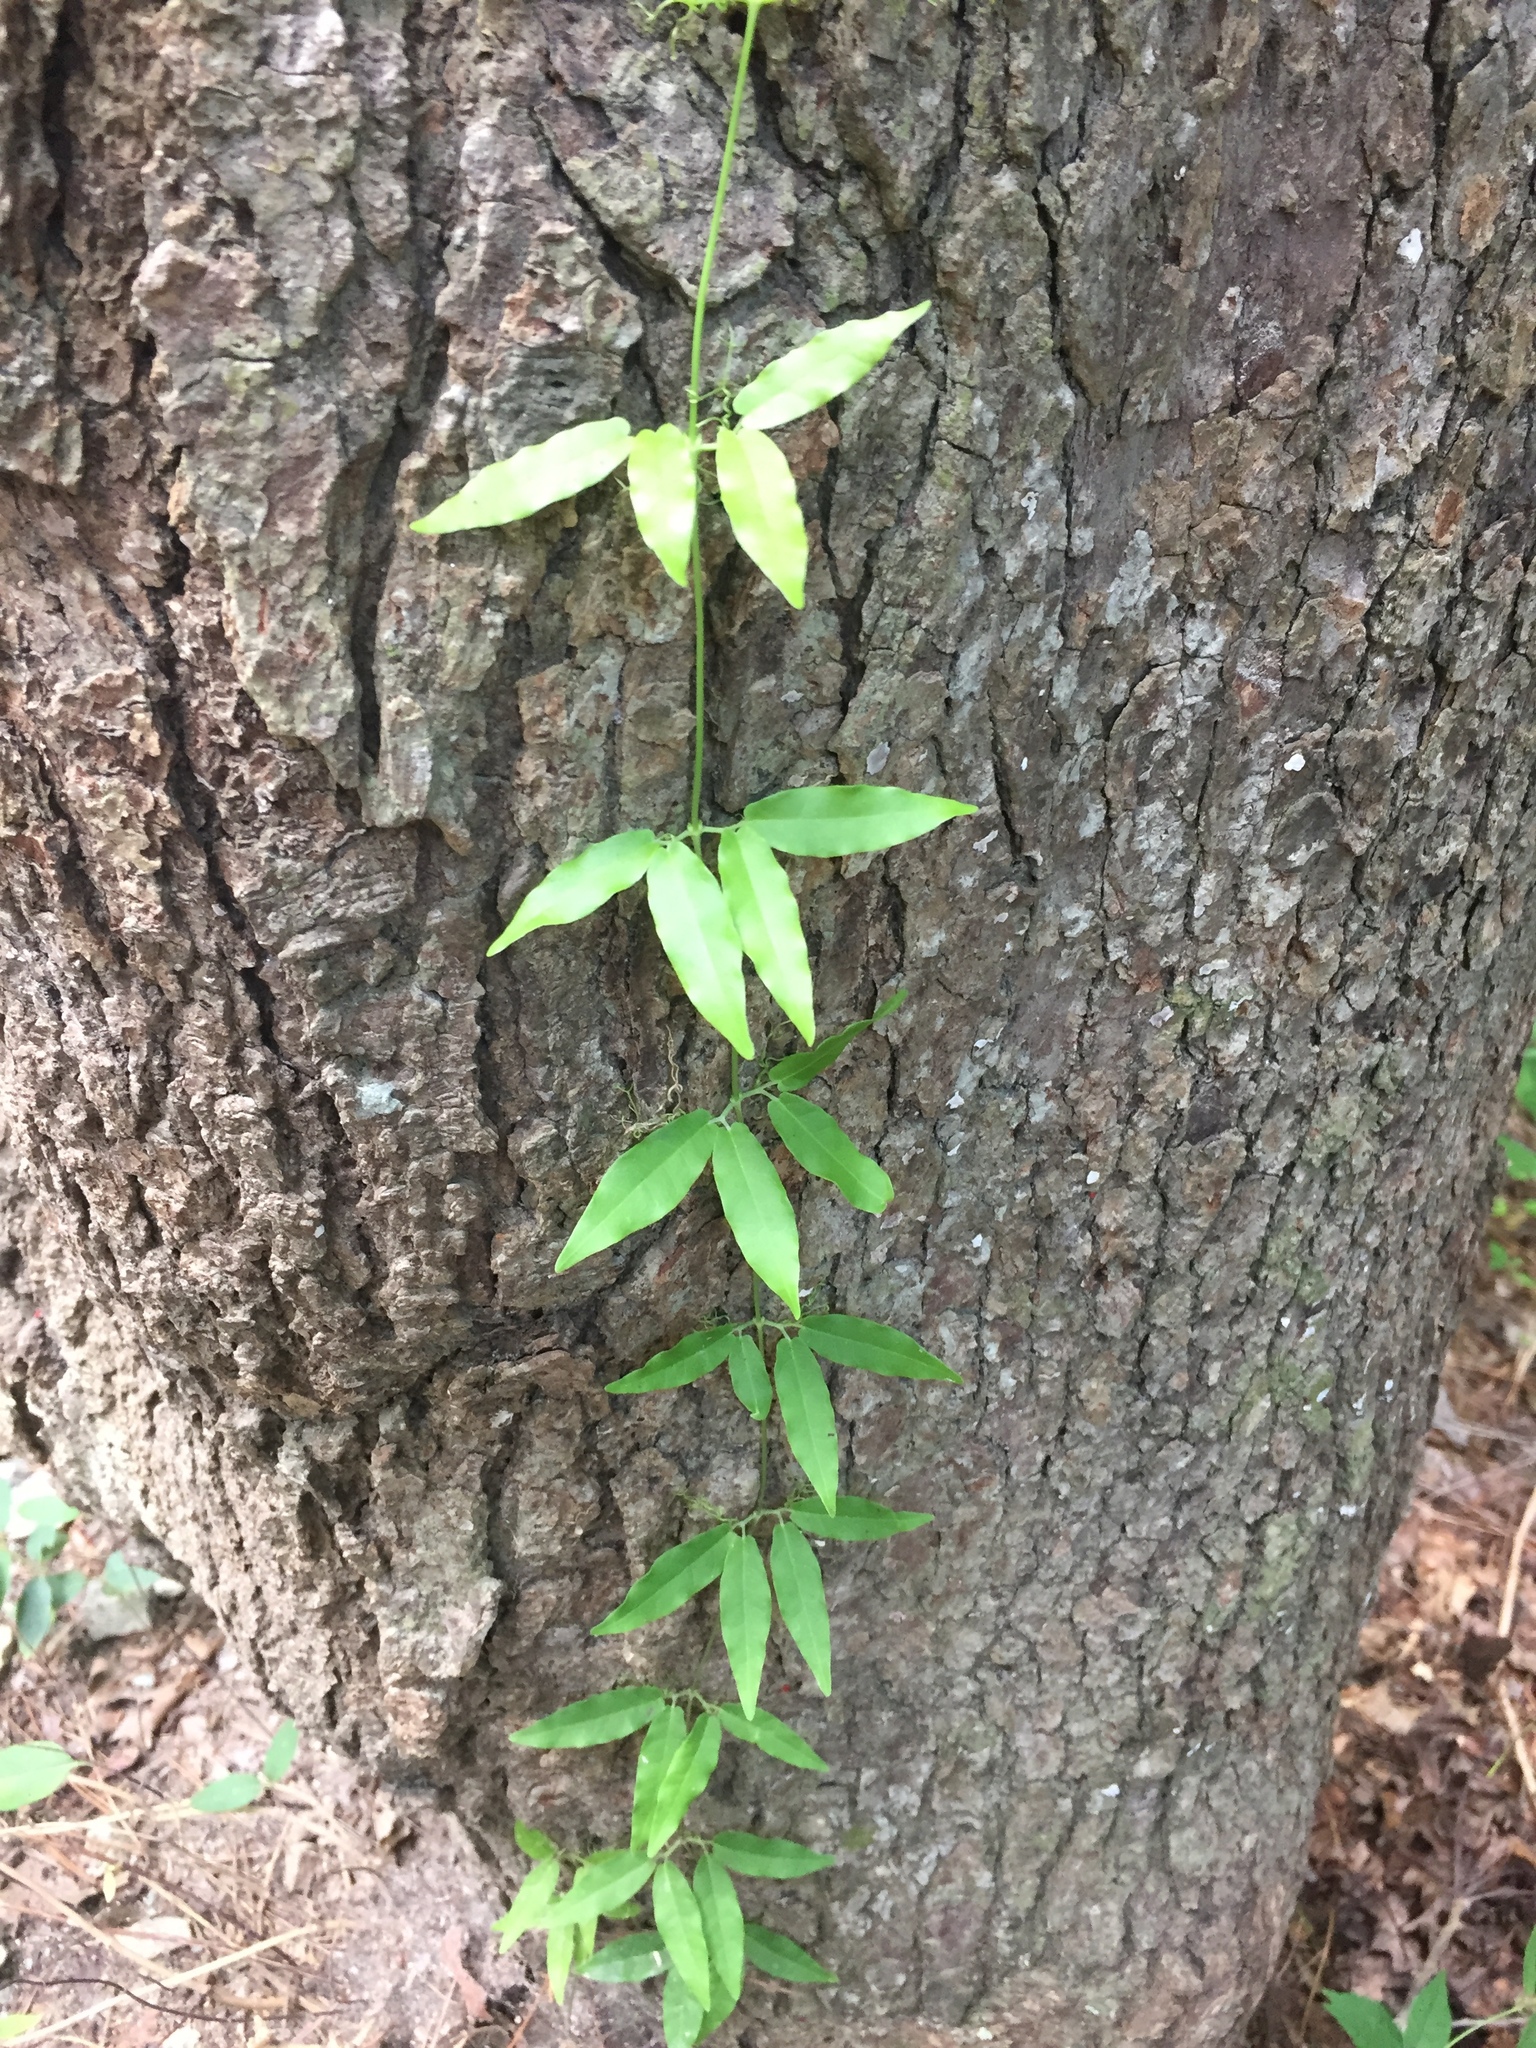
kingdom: Plantae
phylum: Tracheophyta
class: Magnoliopsida
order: Lamiales
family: Bignoniaceae
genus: Bignonia
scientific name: Bignonia capreolata
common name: Crossvine
